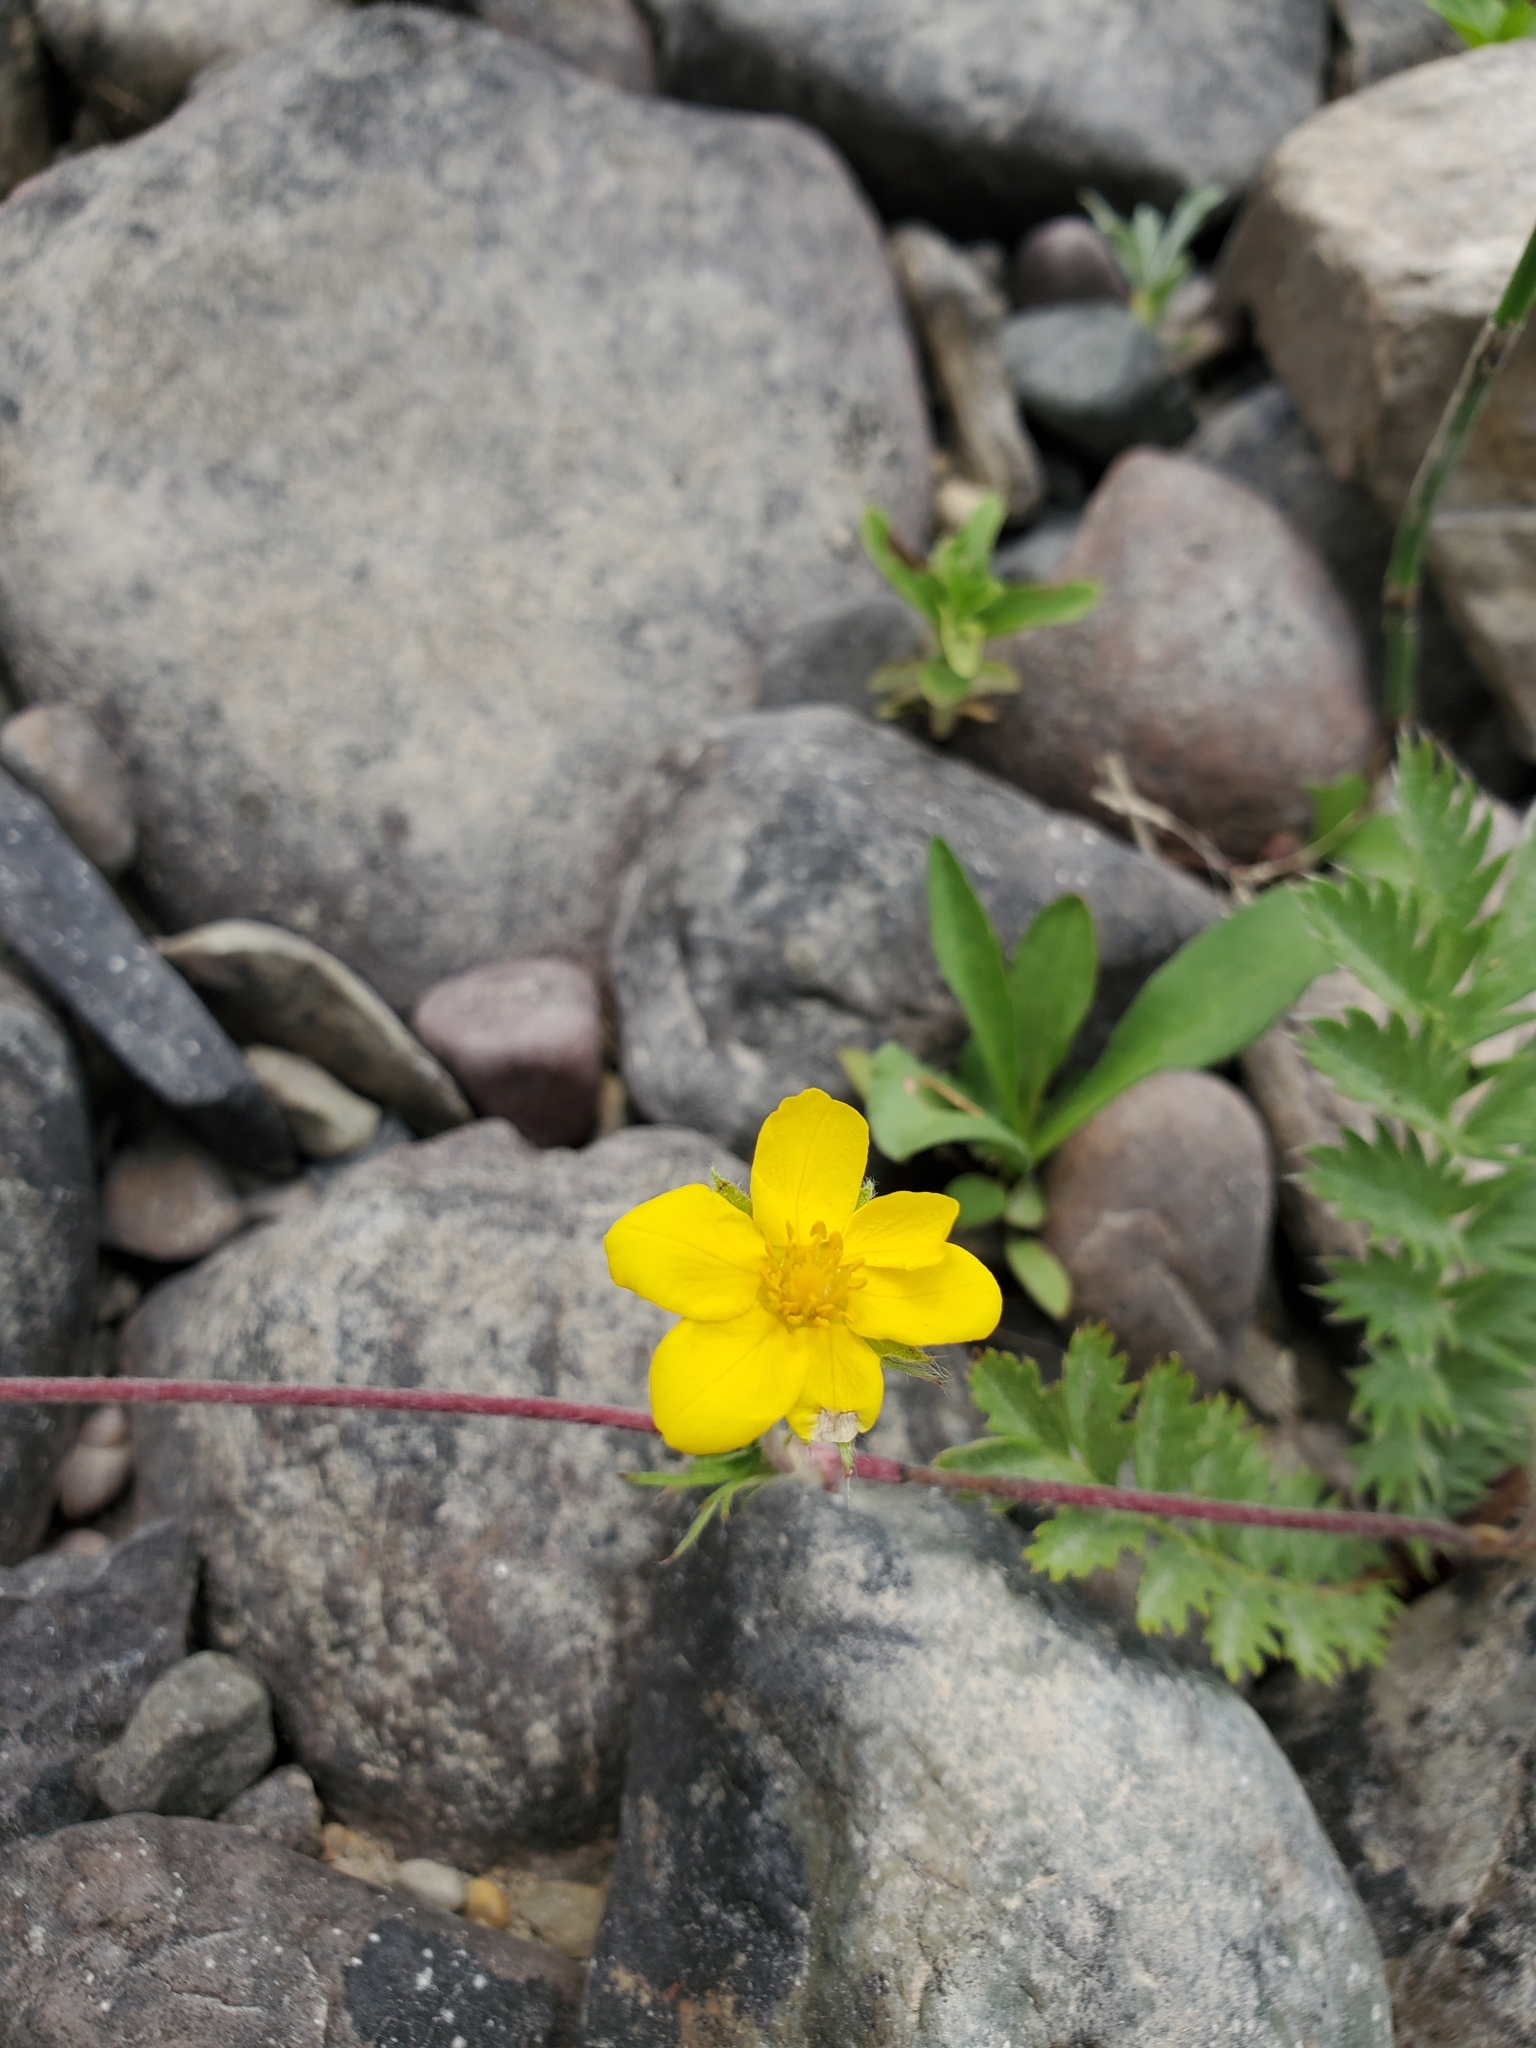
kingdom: Plantae
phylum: Tracheophyta
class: Magnoliopsida
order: Rosales
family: Rosaceae
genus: Argentina
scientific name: Argentina anserina
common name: Common silverweed
